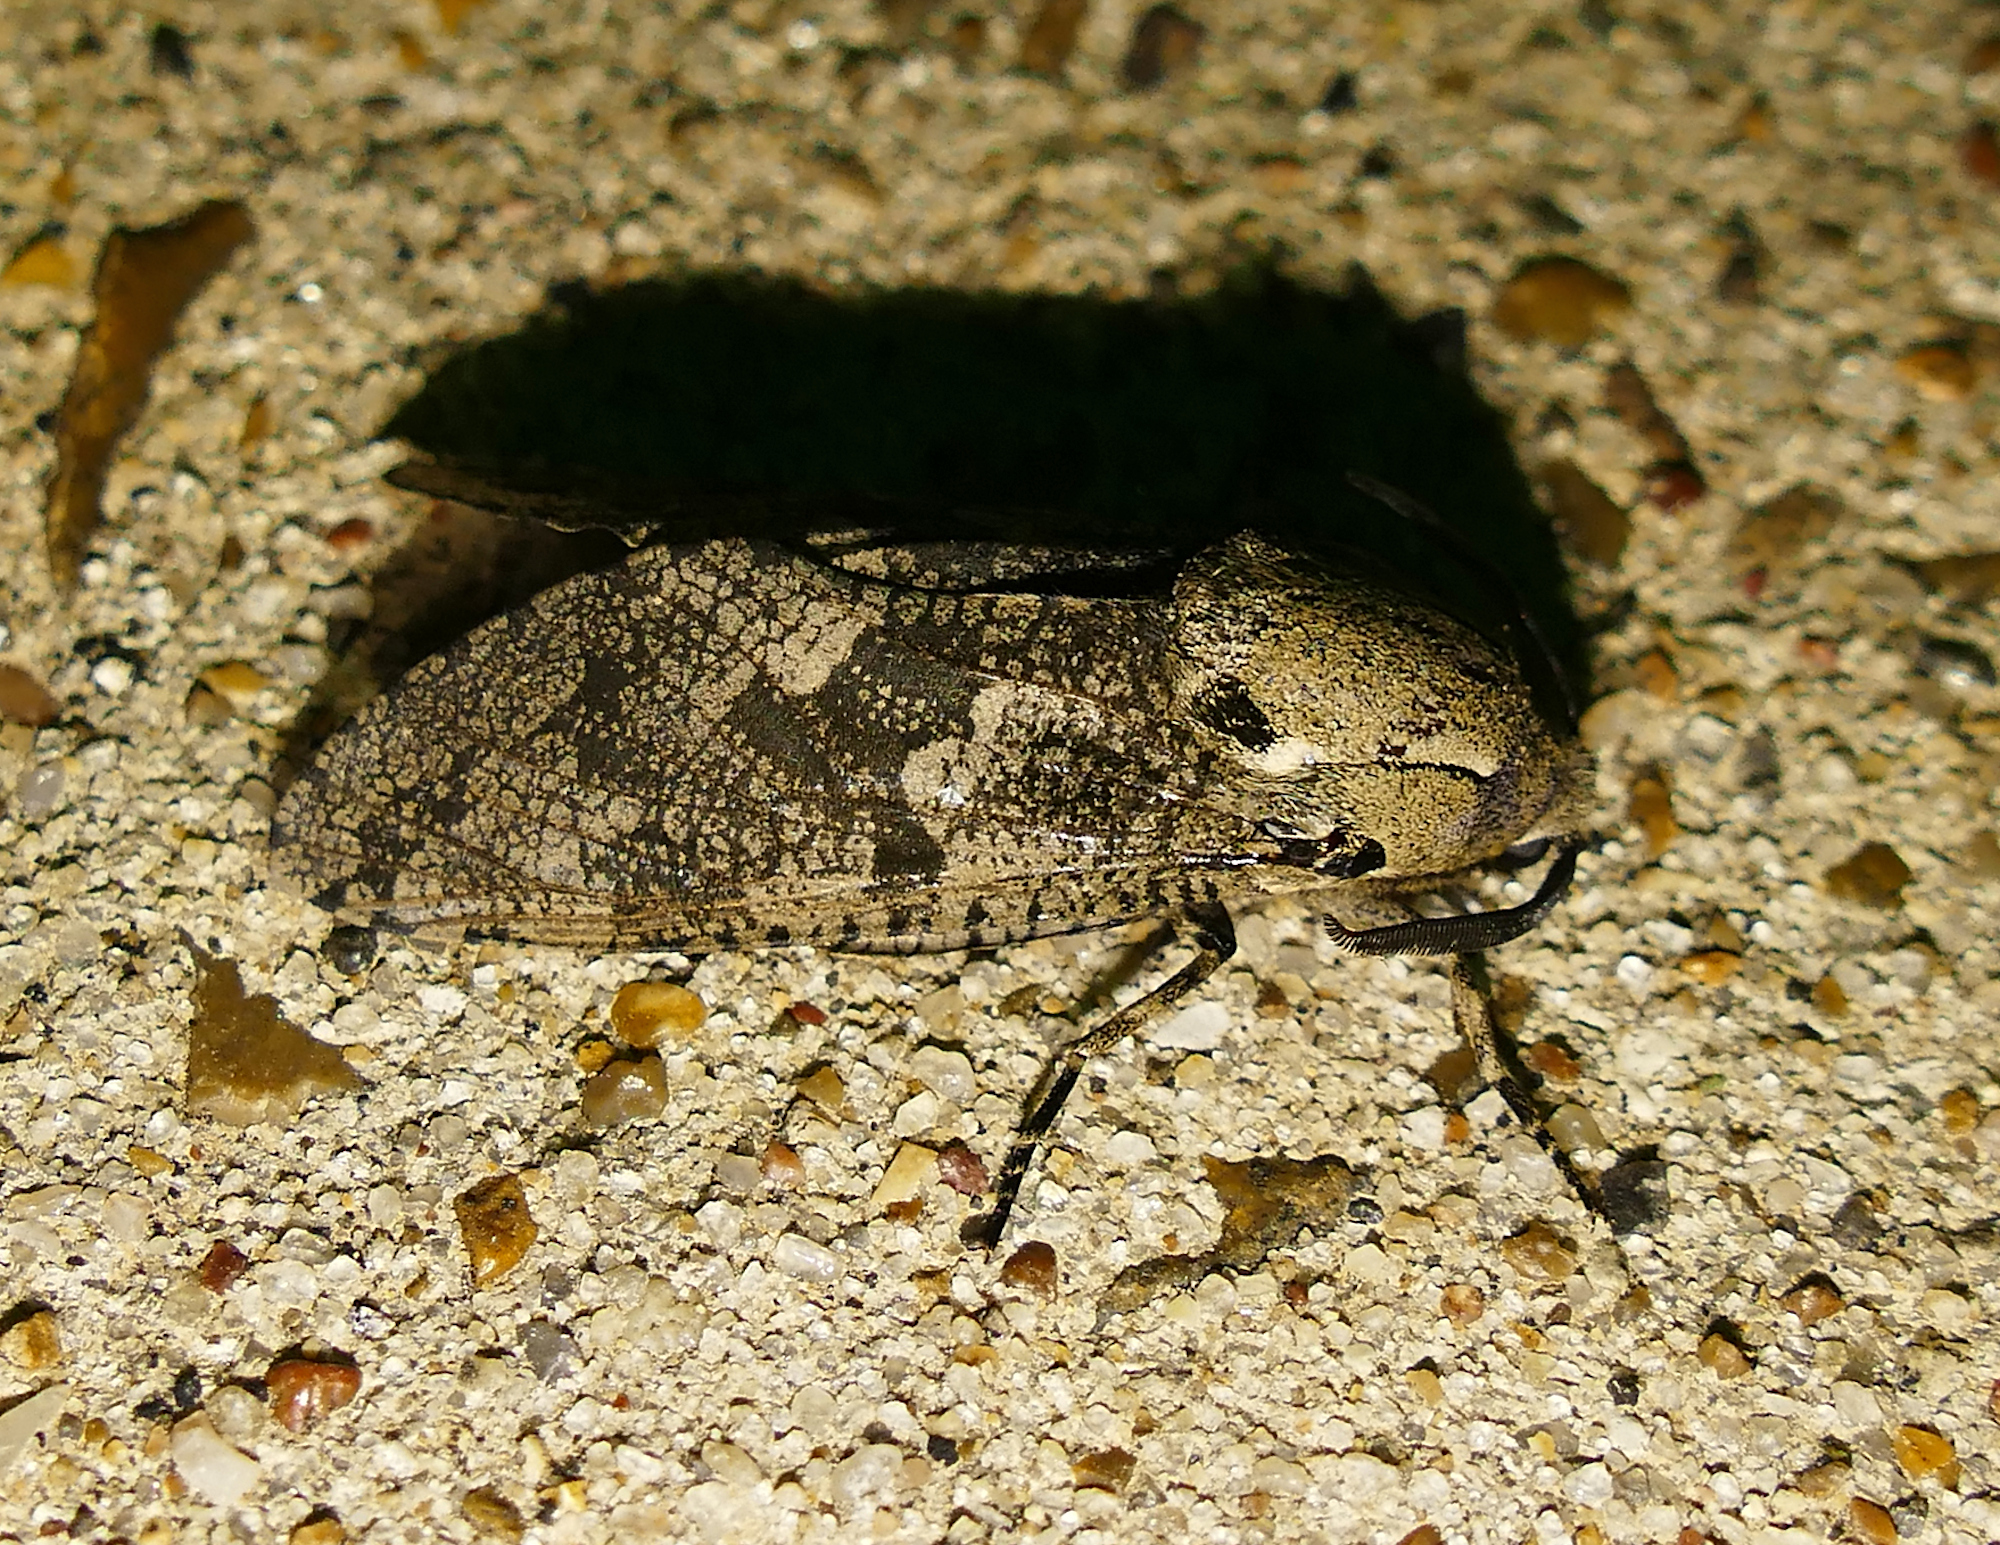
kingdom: Animalia
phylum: Arthropoda
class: Insecta
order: Lepidoptera
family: Cossidae
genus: Prionoxystus
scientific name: Prionoxystus robiniae
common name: Carpenterworm
